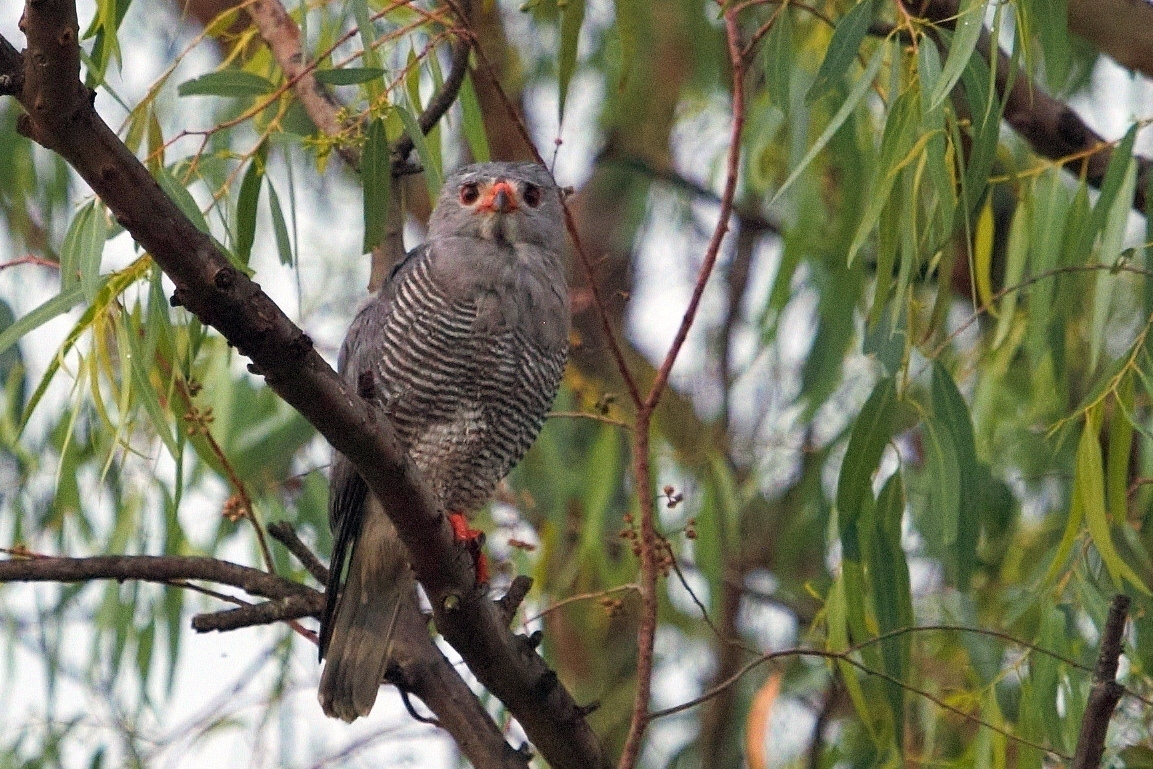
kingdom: Animalia
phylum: Chordata
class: Aves
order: Accipitriformes
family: Accipitridae
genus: Kaupifalco
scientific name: Kaupifalco monogrammicus
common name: Lizard buzzard
